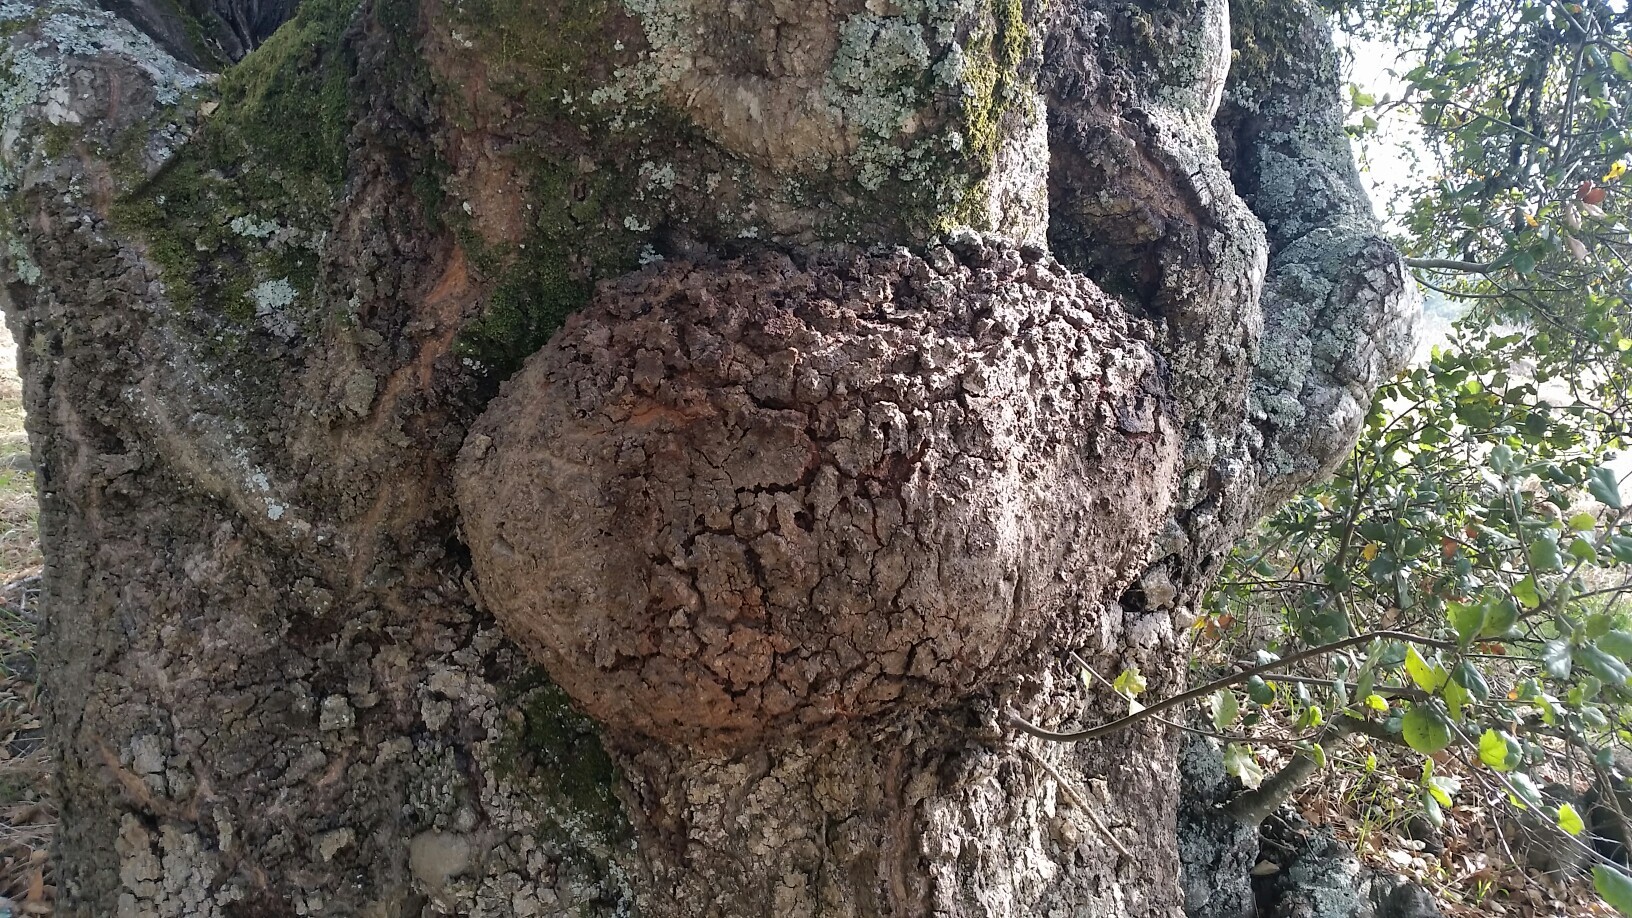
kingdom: Plantae
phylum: Tracheophyta
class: Magnoliopsida
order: Fagales
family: Fagaceae
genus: Quercus
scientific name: Quercus agrifolia
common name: California live oak
